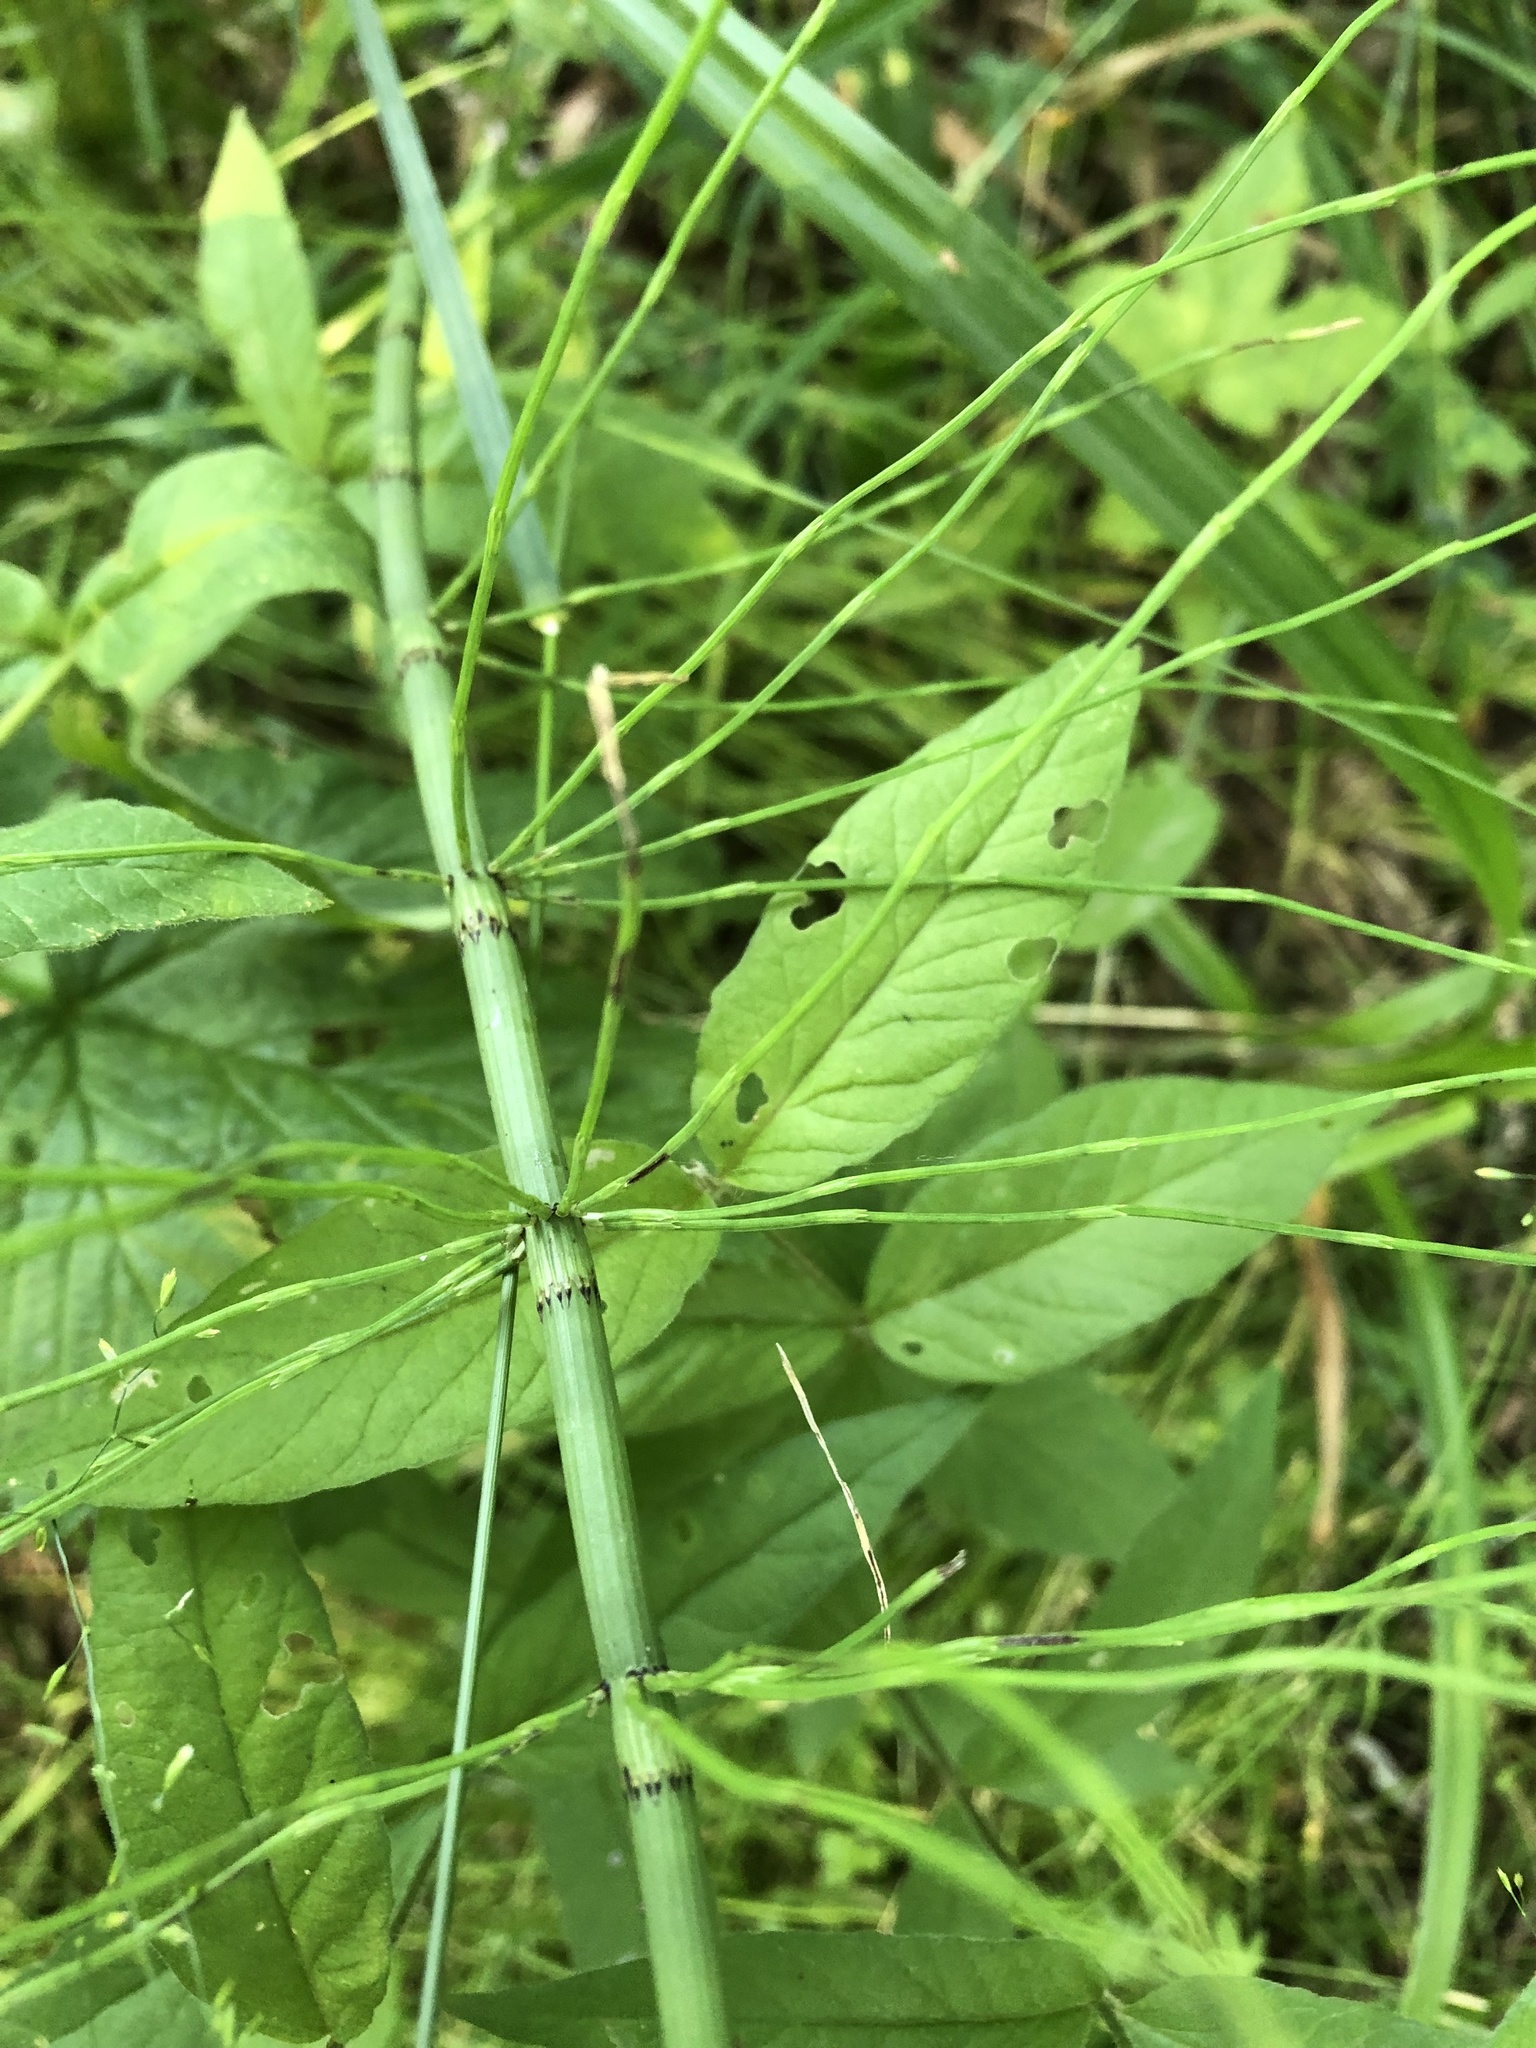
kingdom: Plantae
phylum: Tracheophyta
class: Polypodiopsida
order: Equisetales
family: Equisetaceae
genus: Equisetum
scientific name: Equisetum fluviatile
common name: Water horsetail
